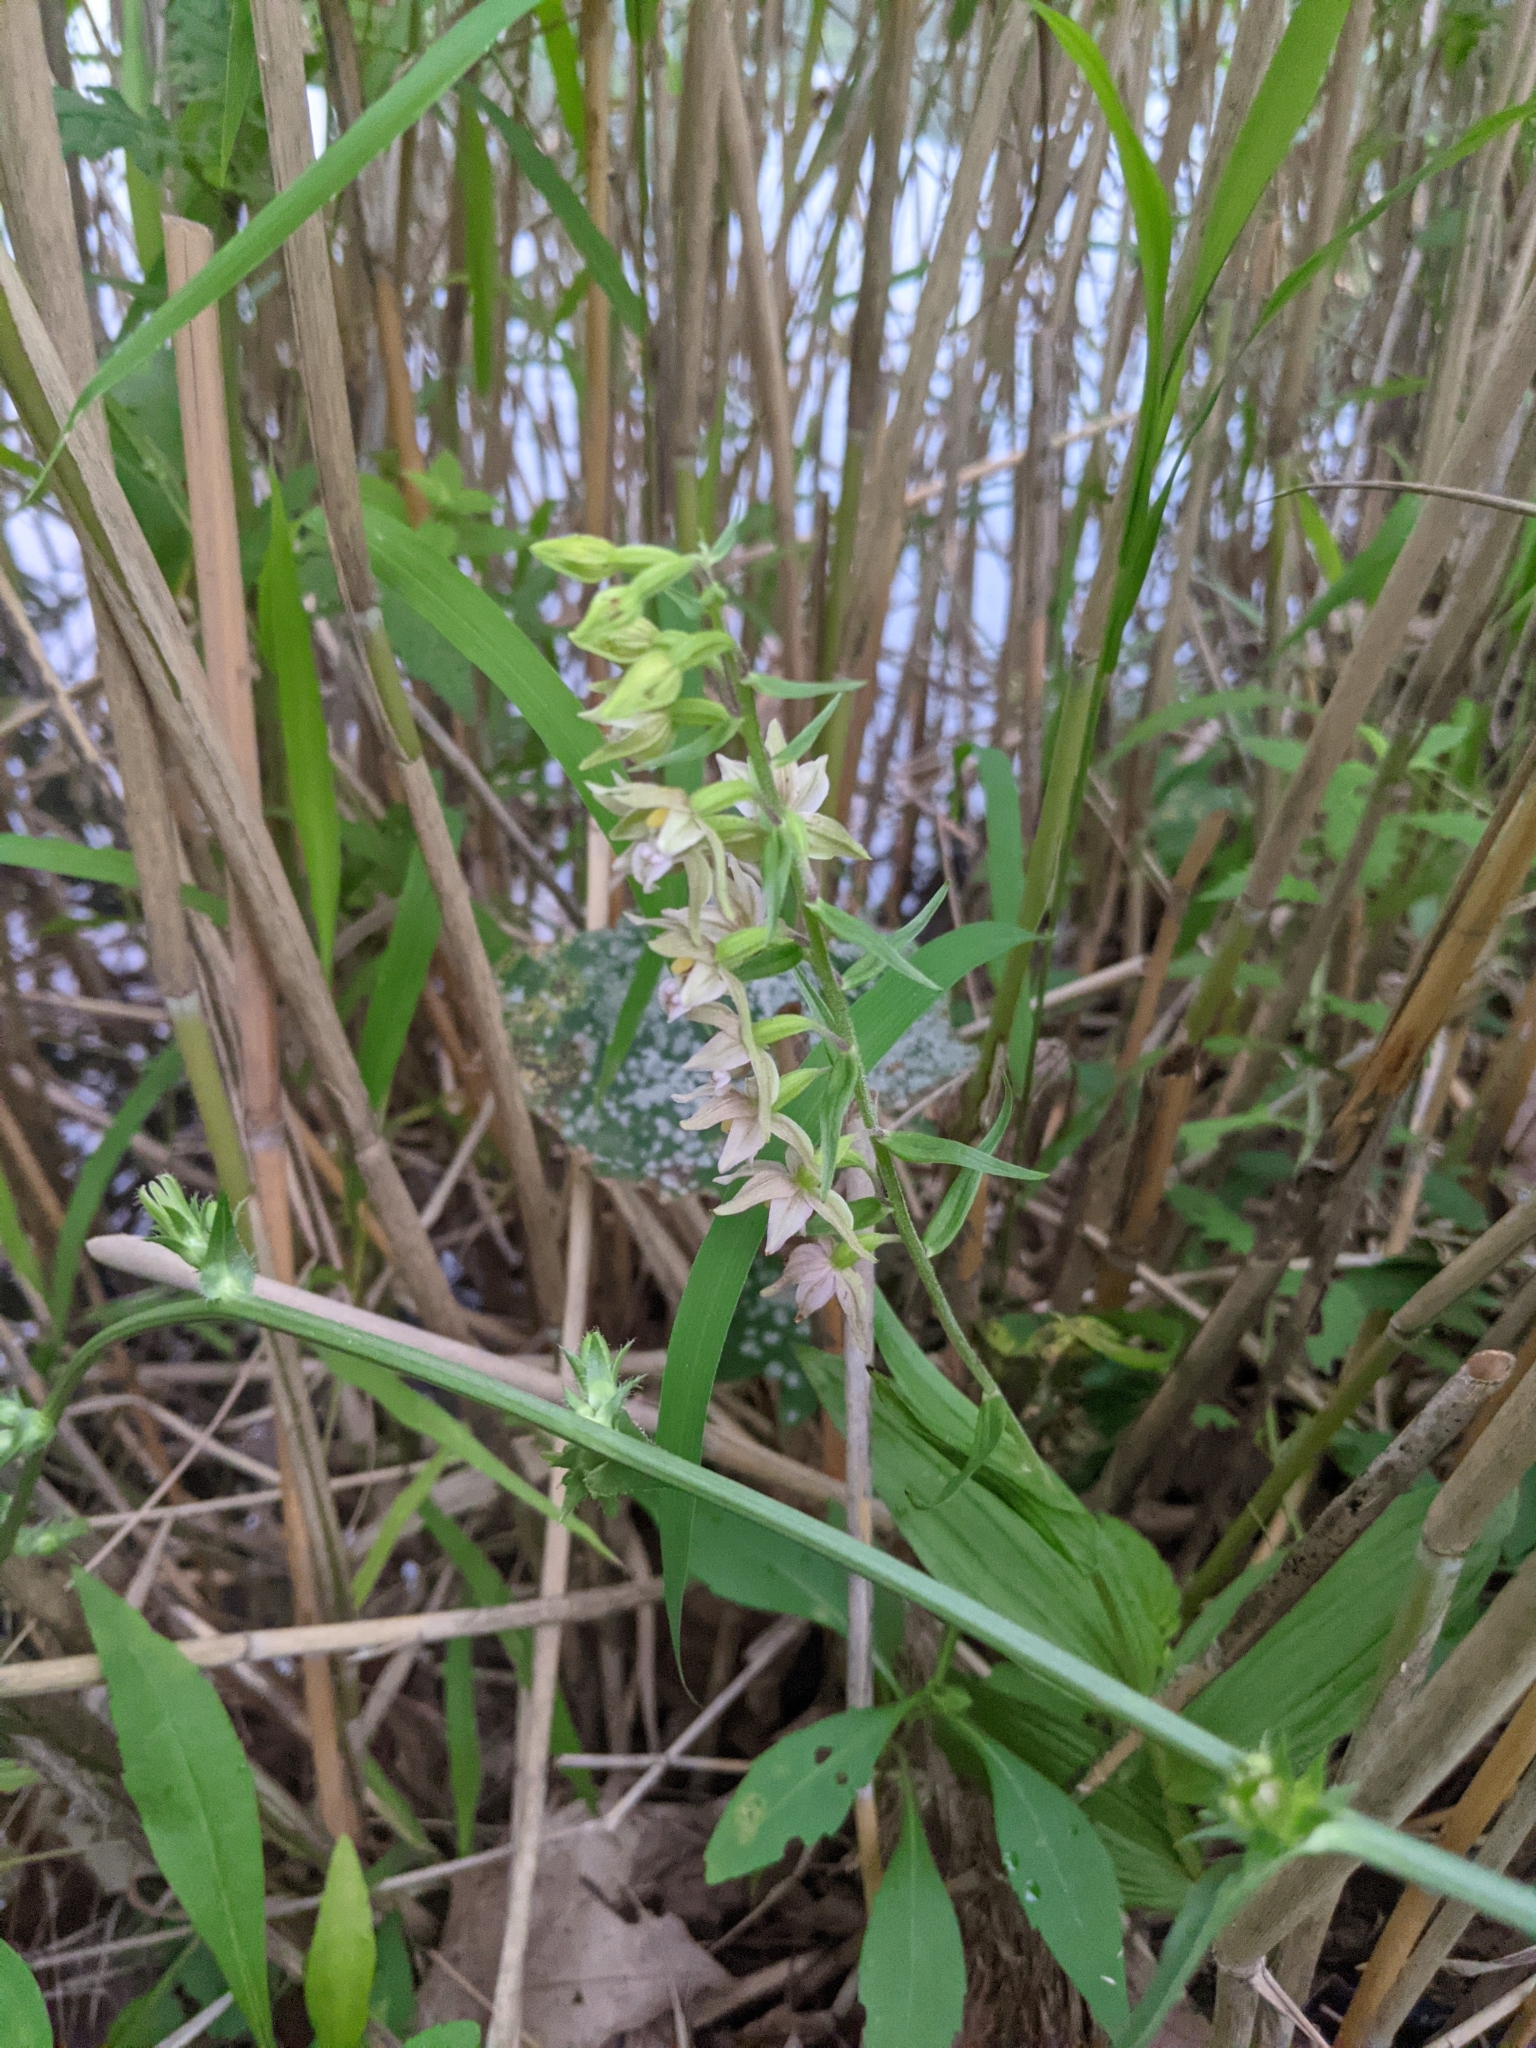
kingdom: Plantae
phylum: Tracheophyta
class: Liliopsida
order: Asparagales
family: Orchidaceae
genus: Epipactis
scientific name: Epipactis helleborine
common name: Broad-leaved helleborine
